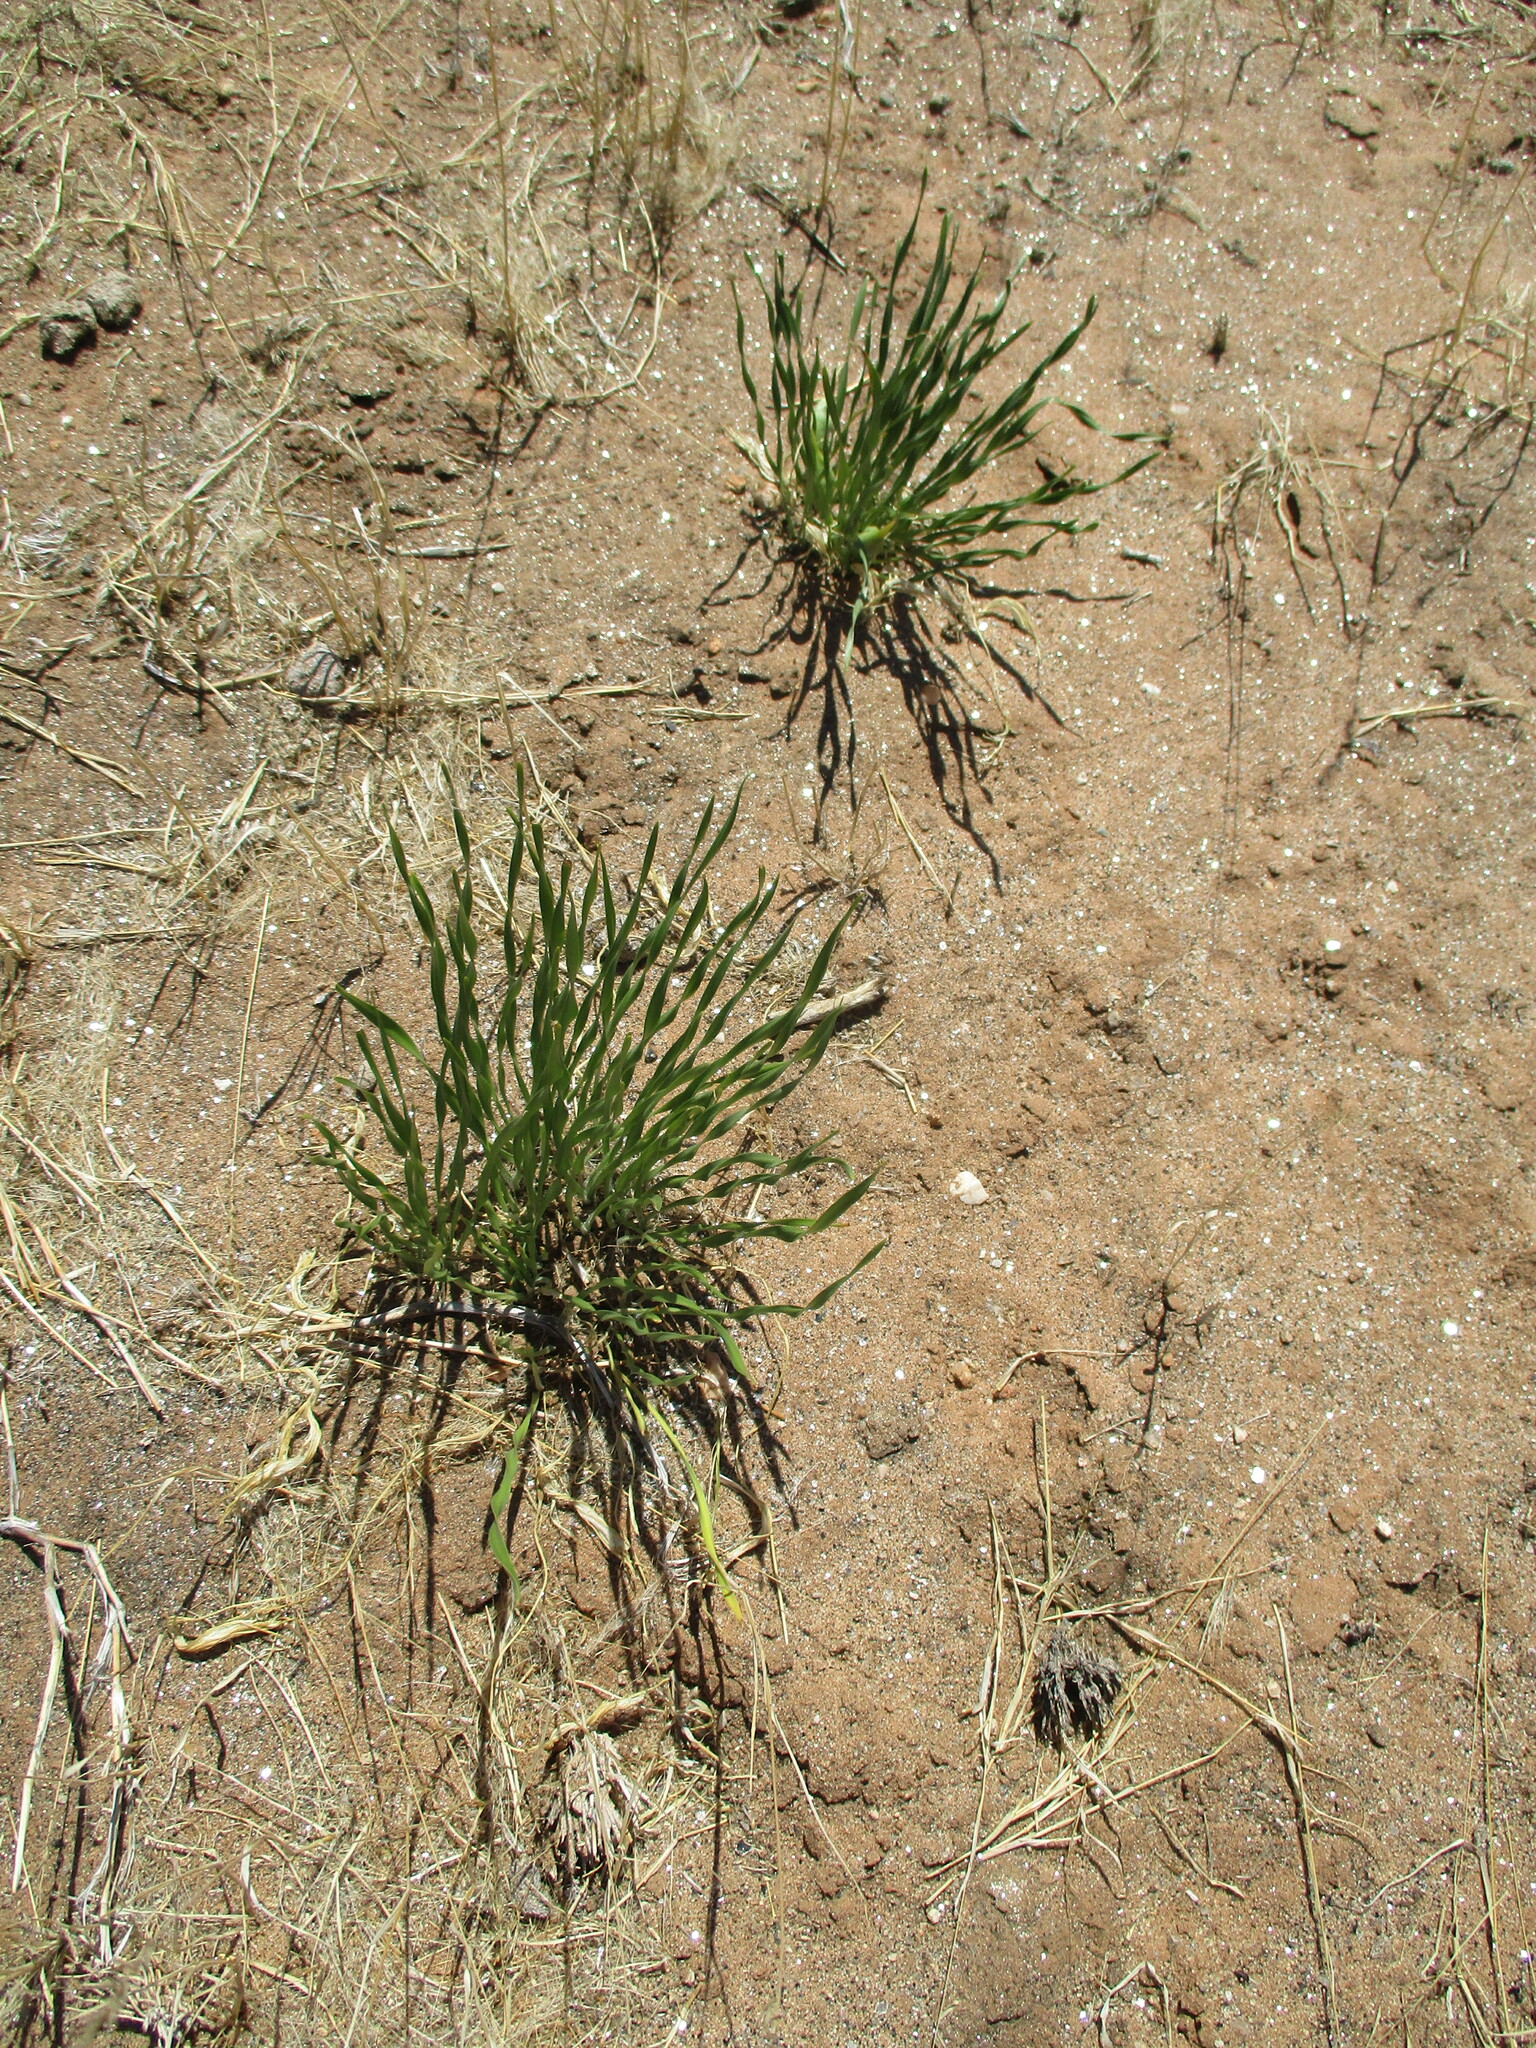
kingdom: Plantae
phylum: Tracheophyta
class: Liliopsida
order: Asparagales
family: Amaryllidaceae
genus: Pancratium
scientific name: Pancratium tenuifolium
